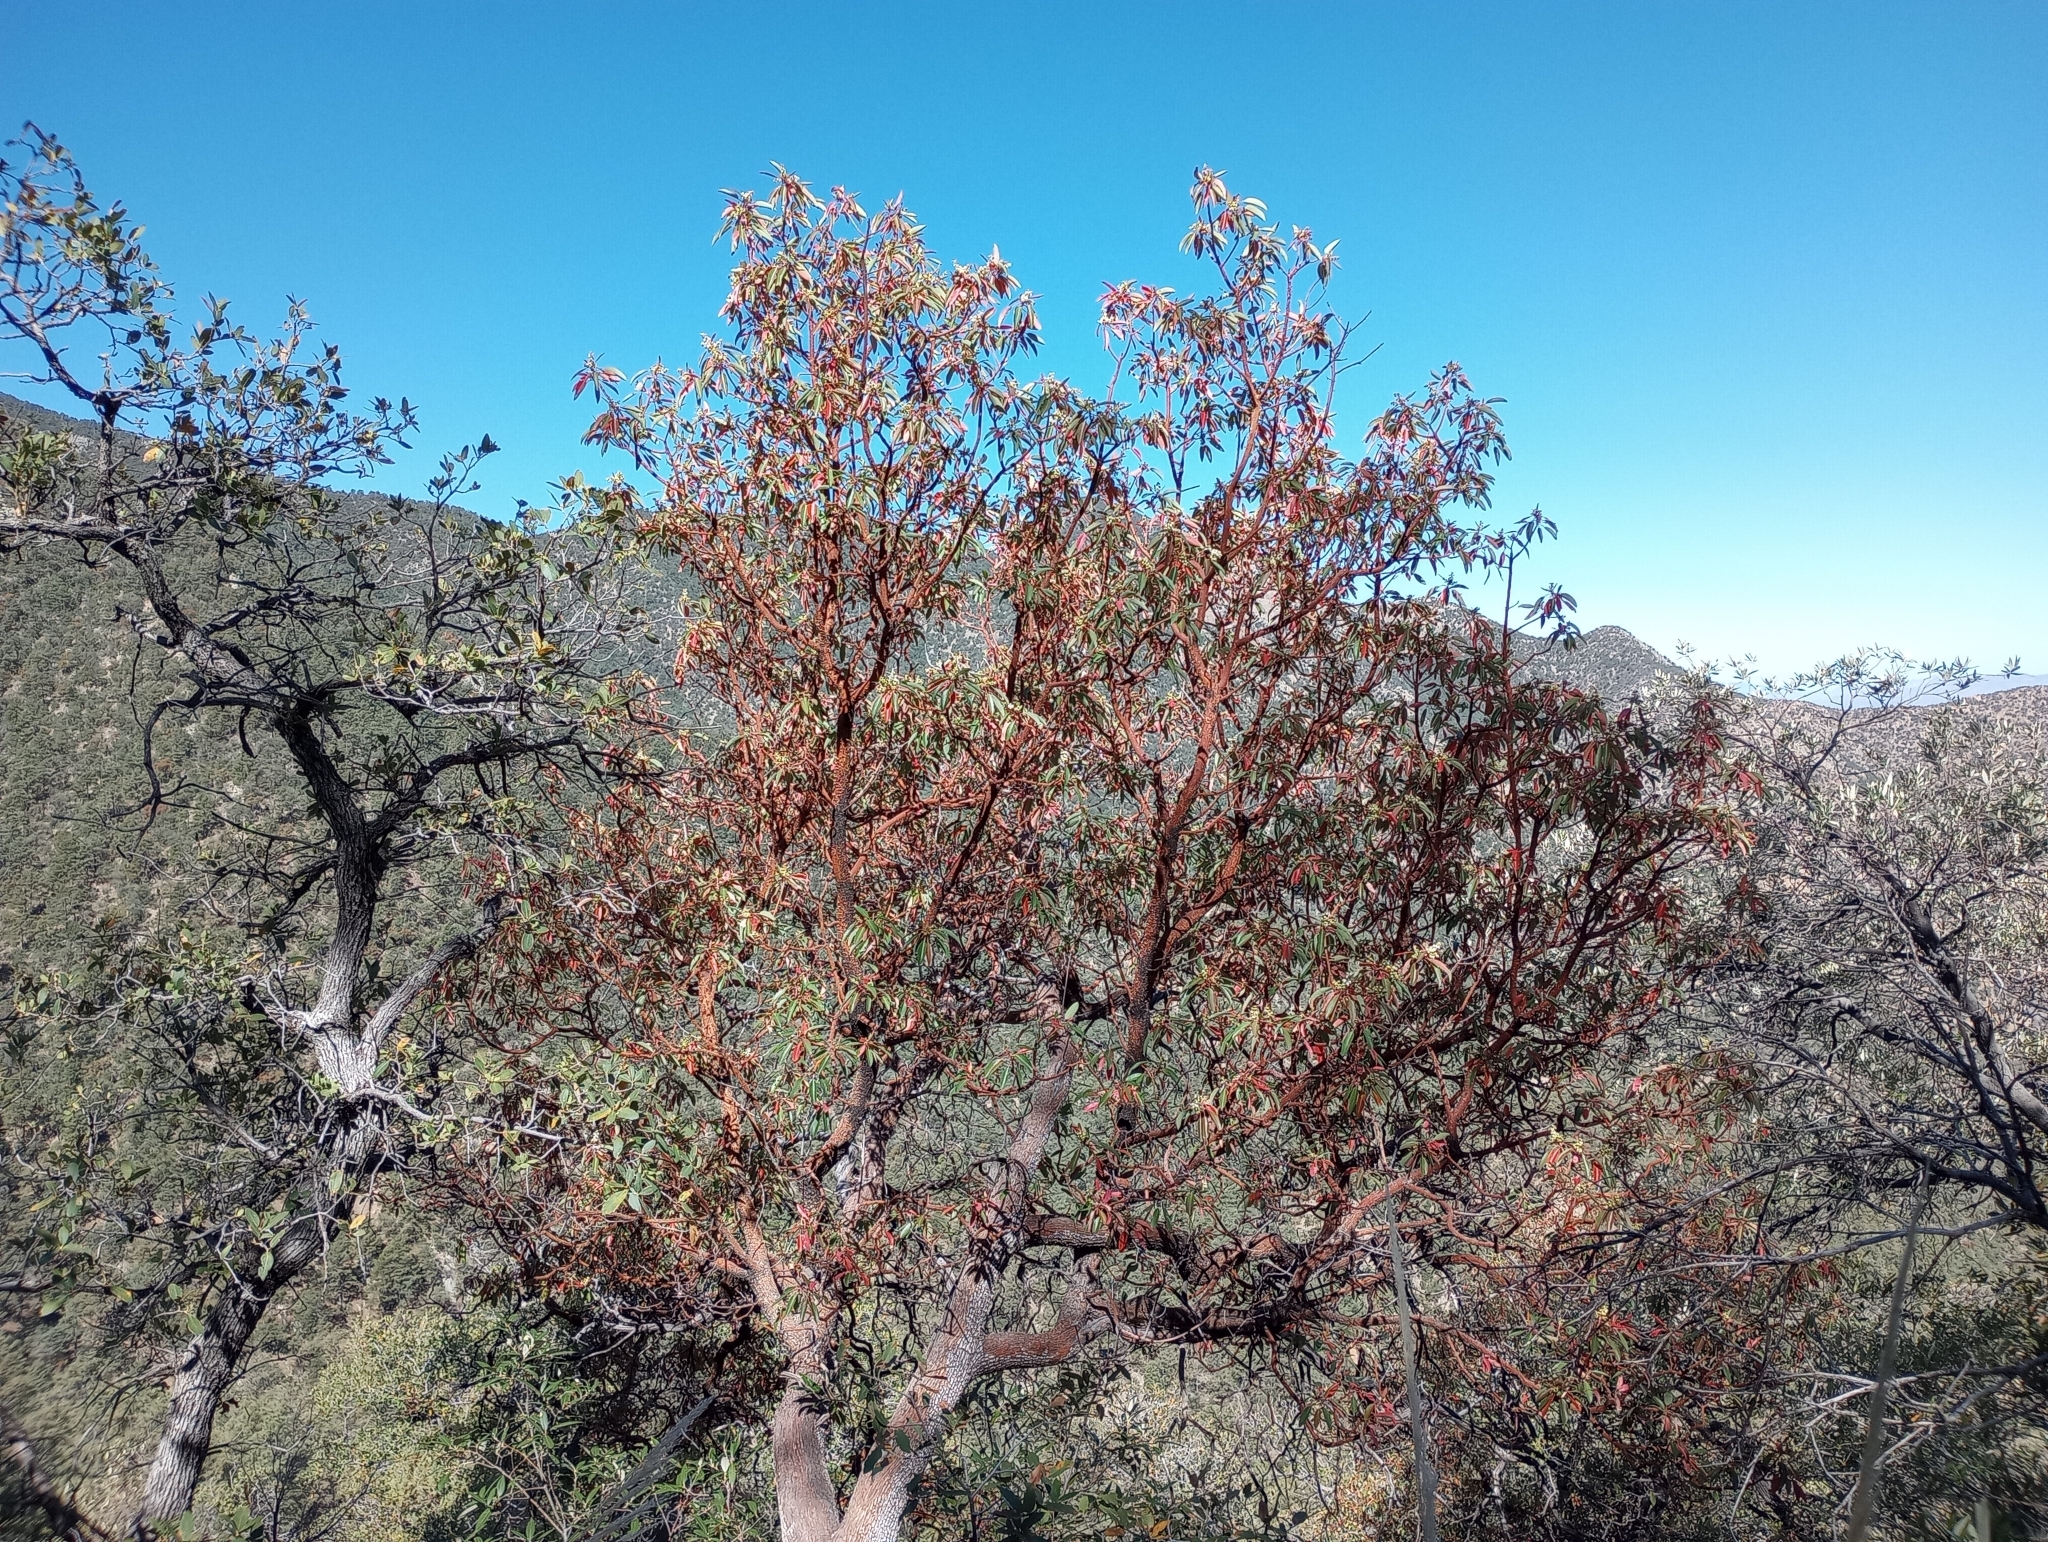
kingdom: Plantae
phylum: Tracheophyta
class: Magnoliopsida
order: Ericales
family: Ericaceae
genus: Arbutus
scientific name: Arbutus arizonica
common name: Arizona madrone
